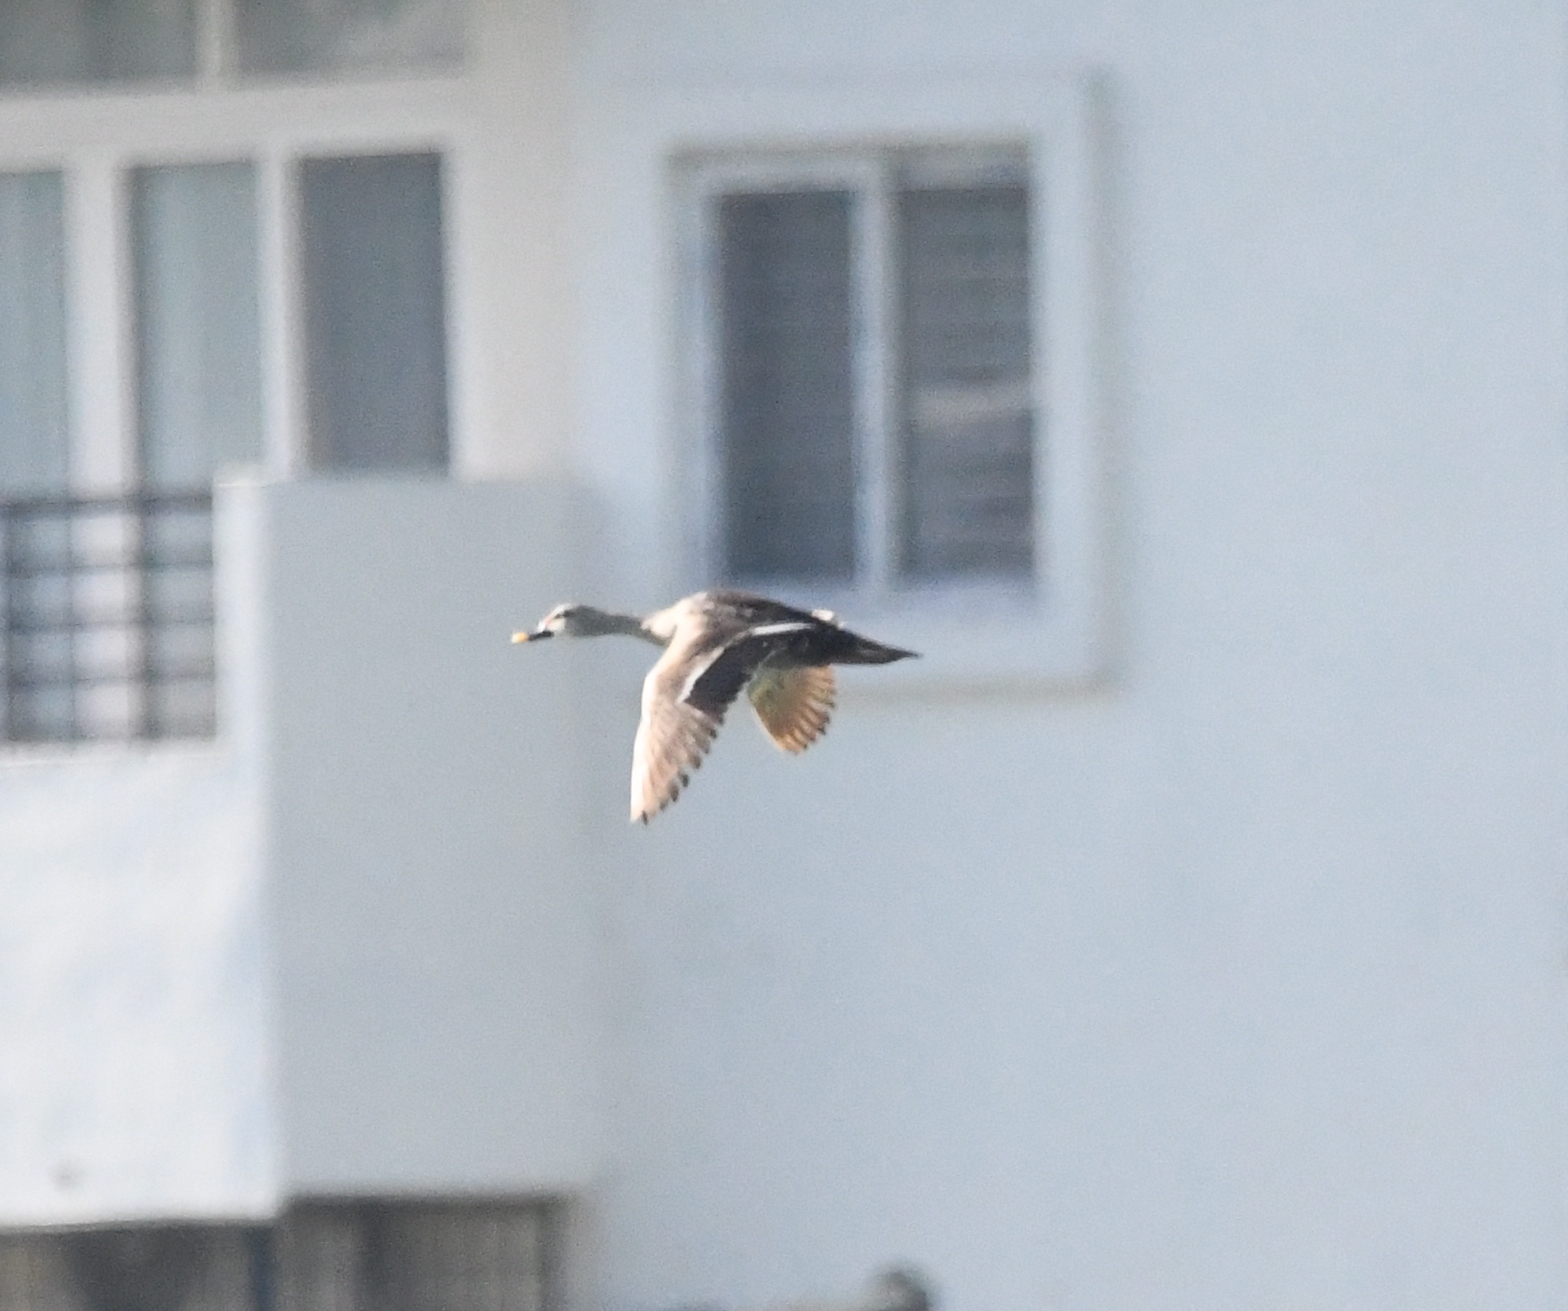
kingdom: Animalia
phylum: Chordata
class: Aves
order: Anseriformes
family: Anatidae
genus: Anas
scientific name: Anas poecilorhyncha
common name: Indian spot-billed duck
